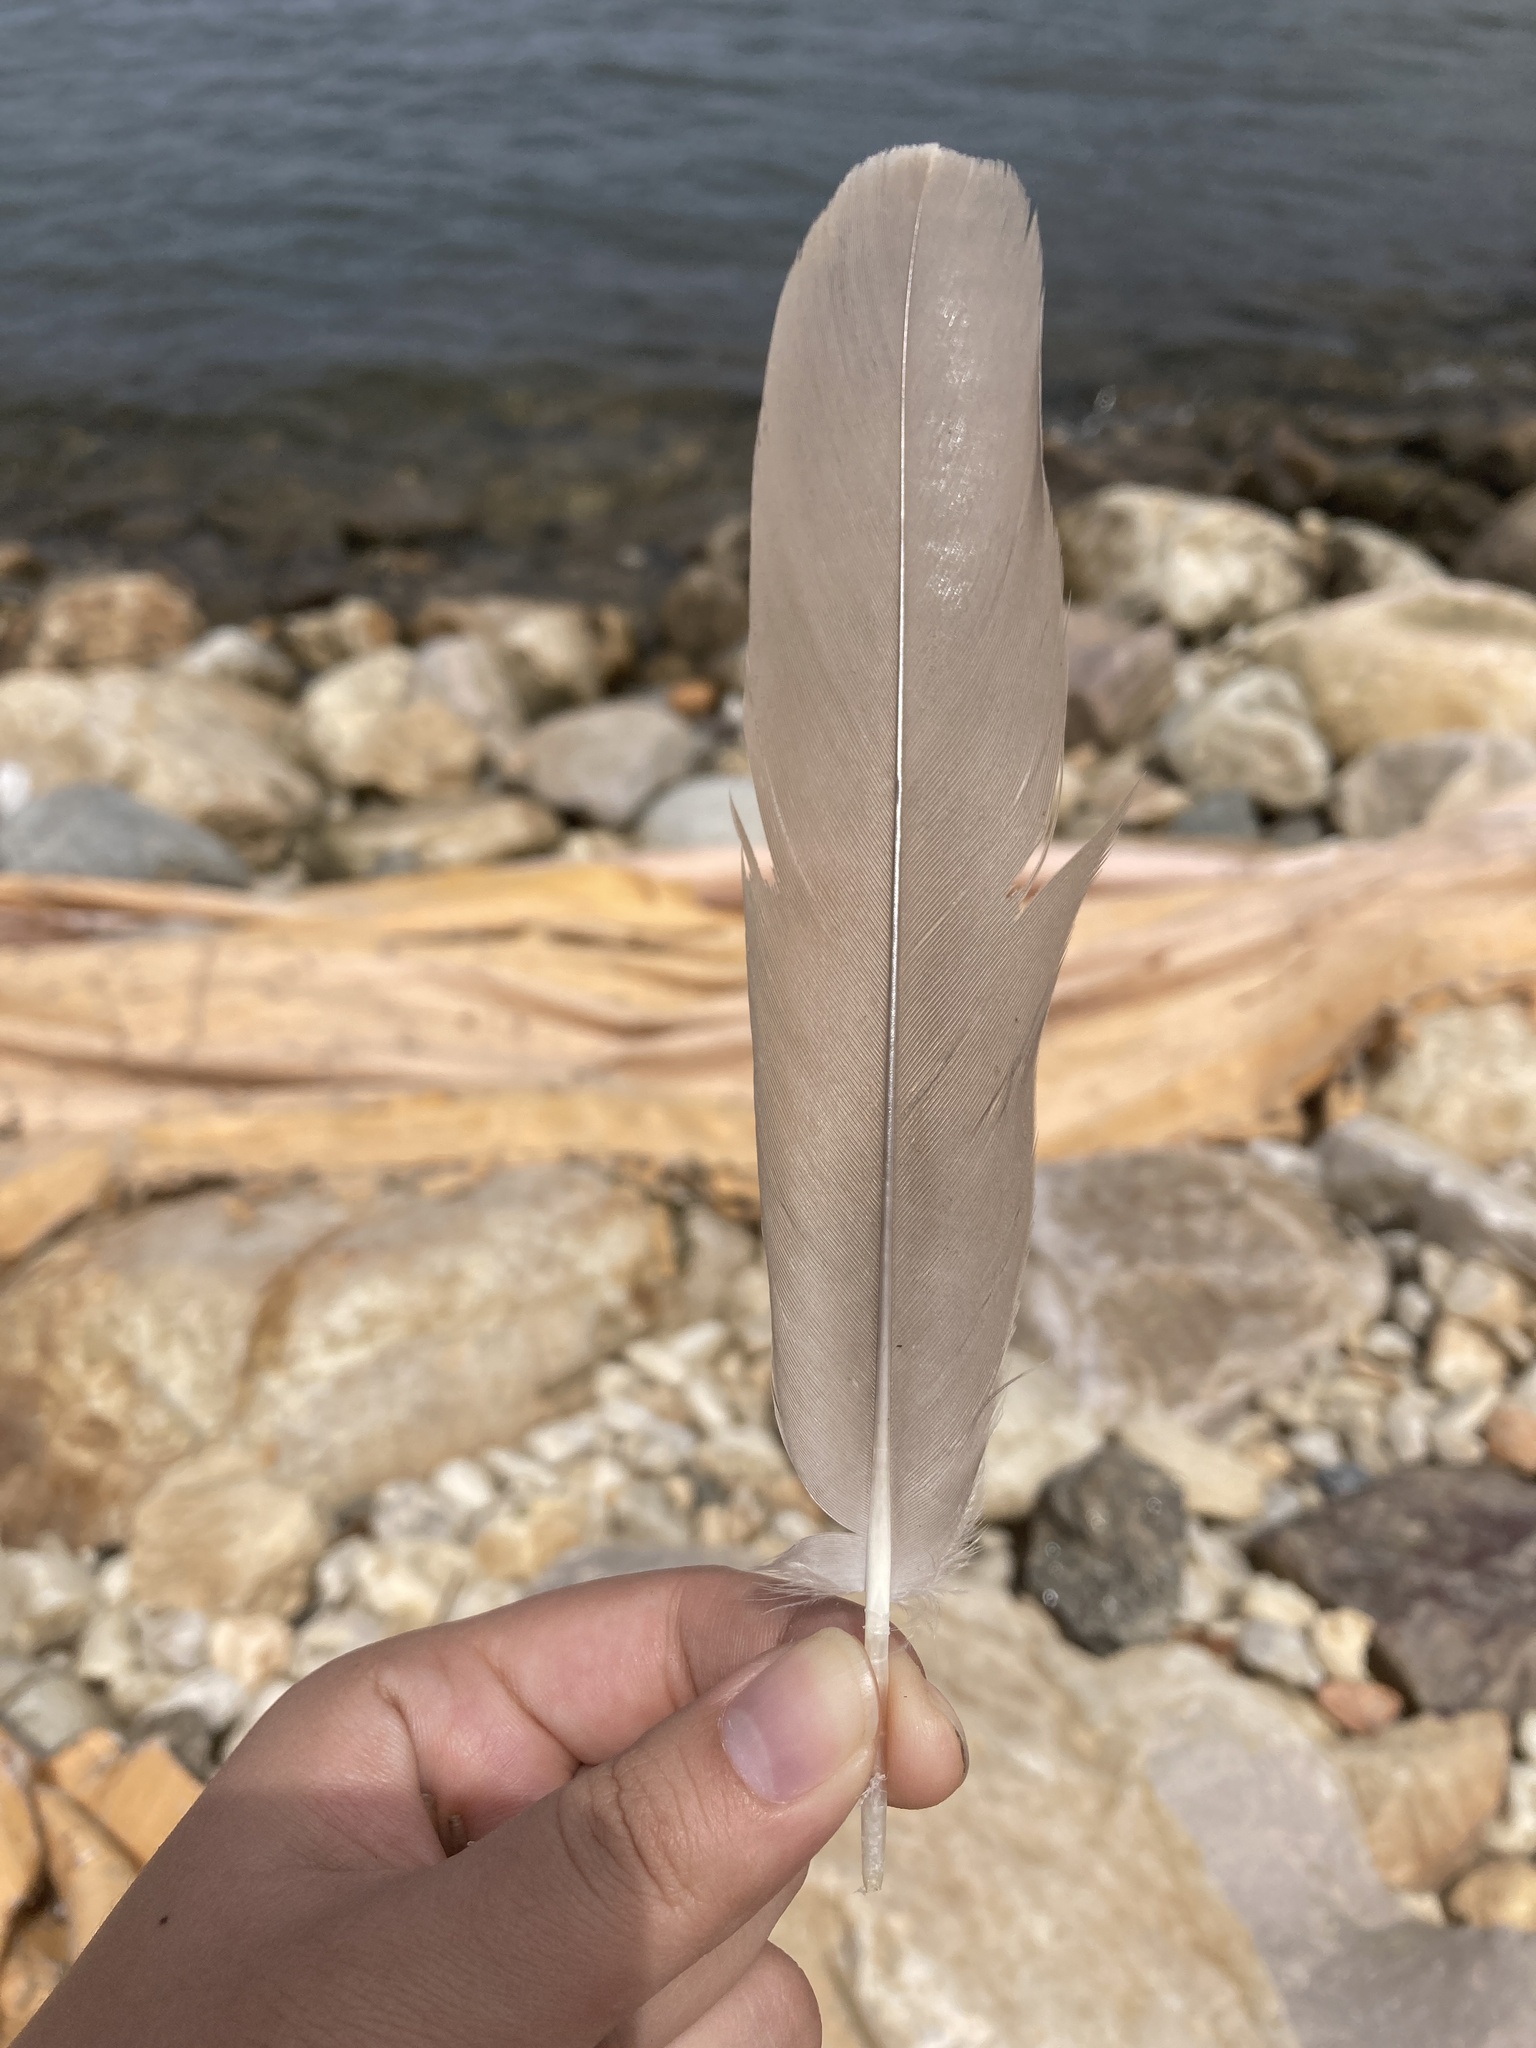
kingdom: Animalia
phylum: Chordata
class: Aves
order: Anseriformes
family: Anatidae
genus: Branta
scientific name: Branta canadensis
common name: Canada goose
